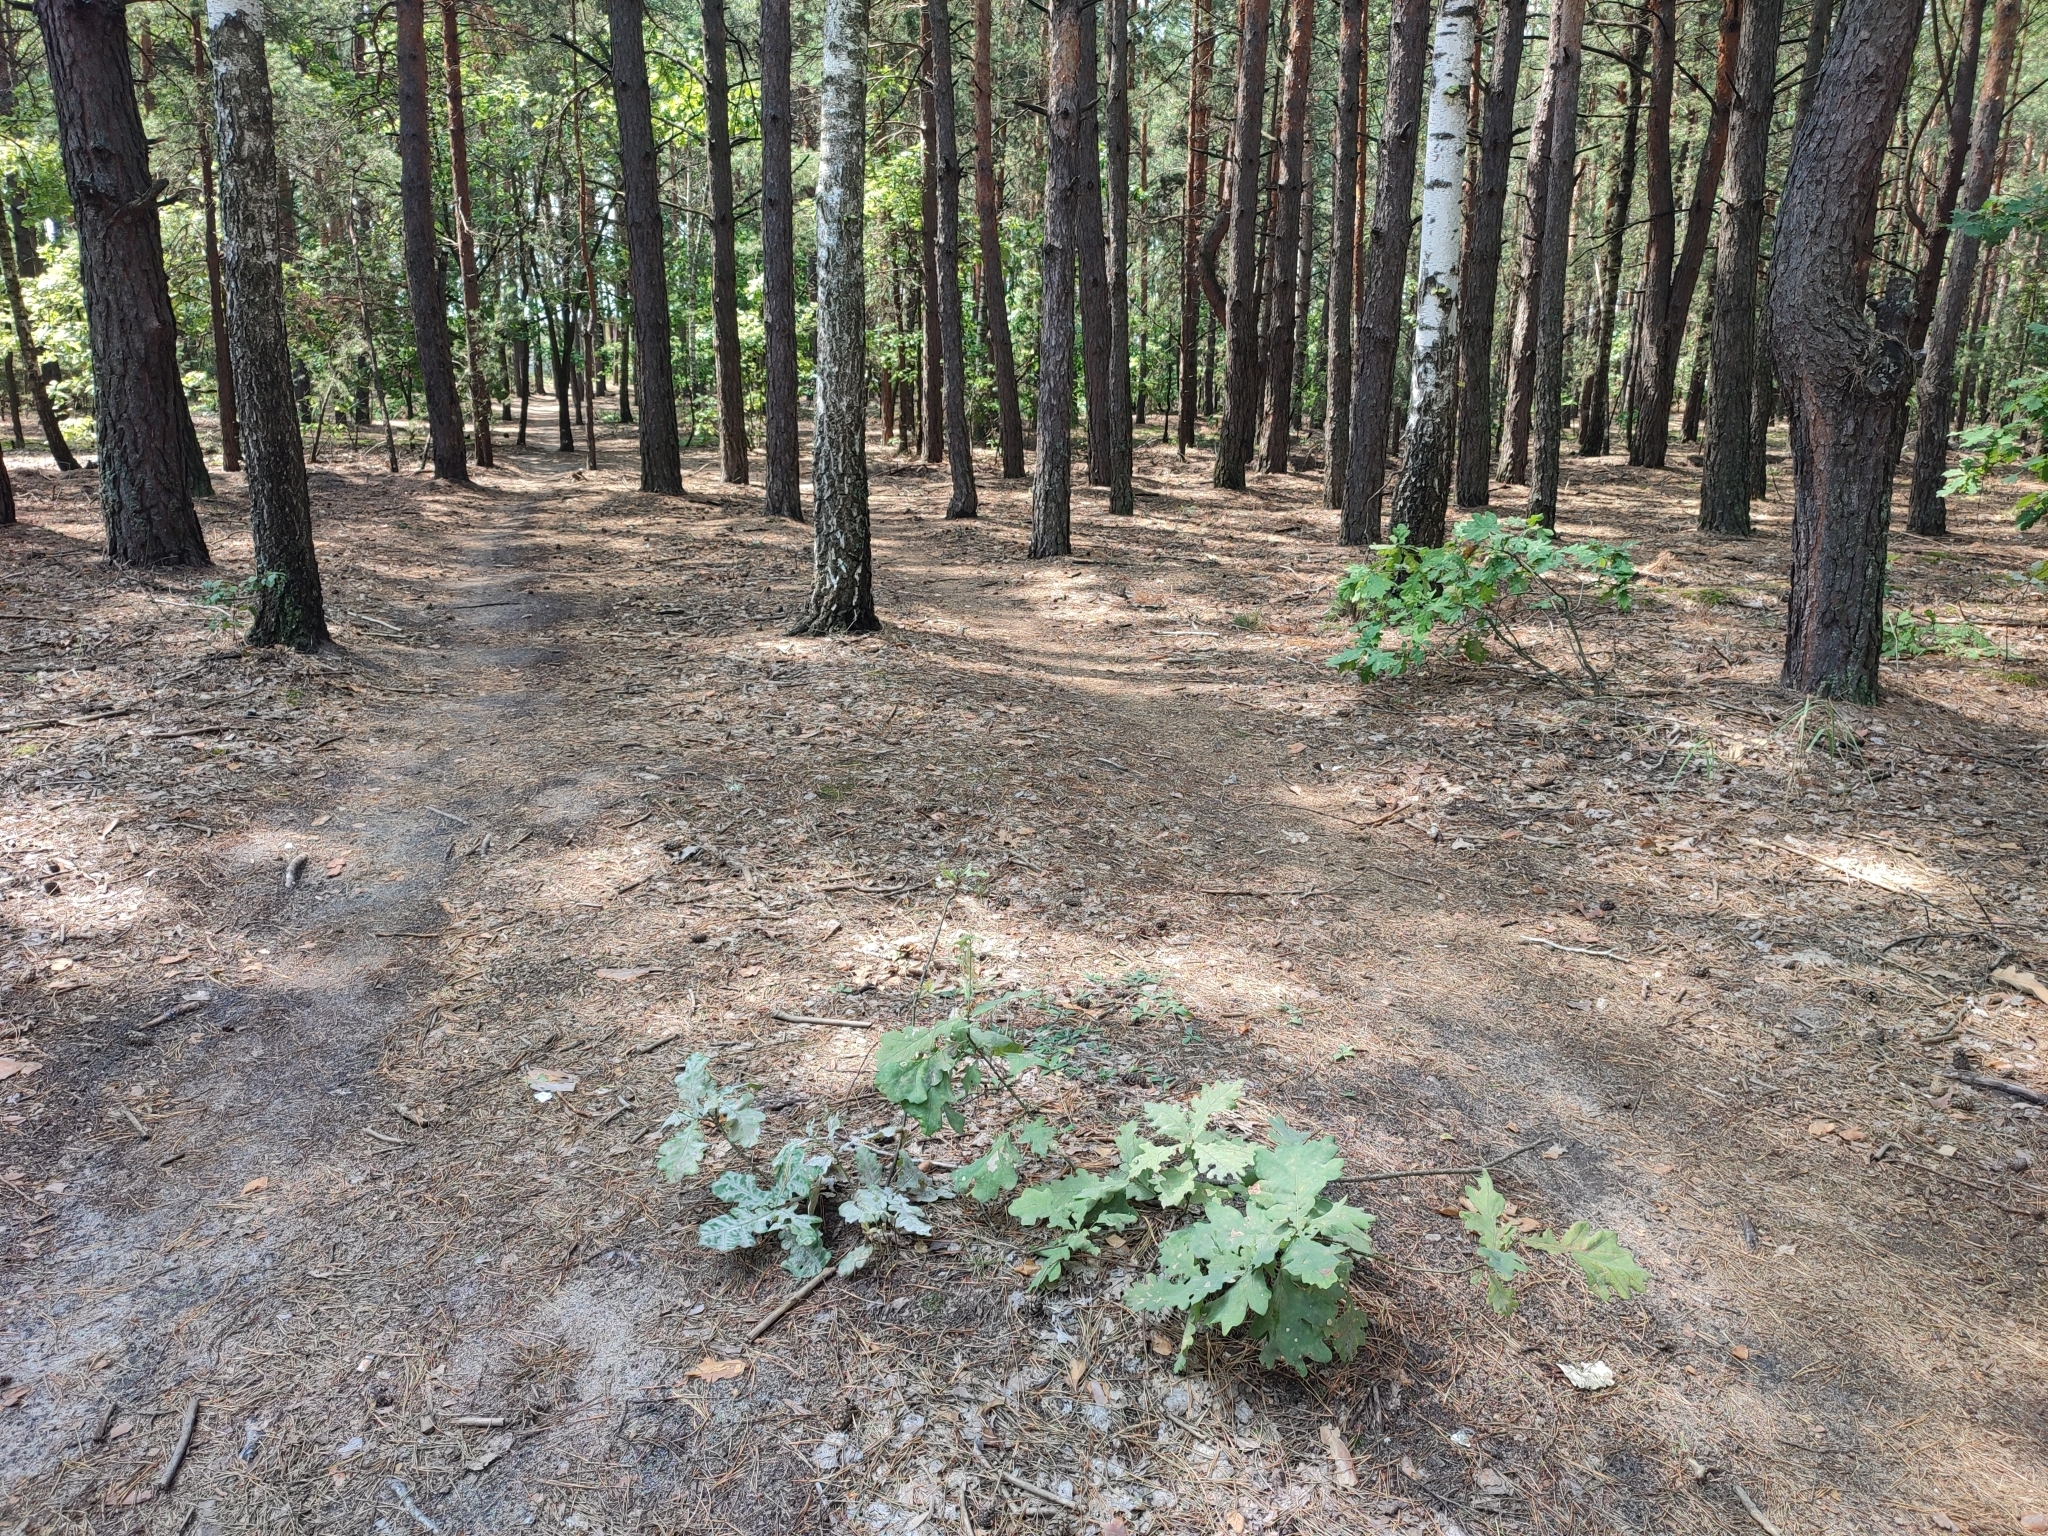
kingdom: Plantae
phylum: Tracheophyta
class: Magnoliopsida
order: Fagales
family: Fagaceae
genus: Quercus
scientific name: Quercus robur
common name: Pedunculate oak
